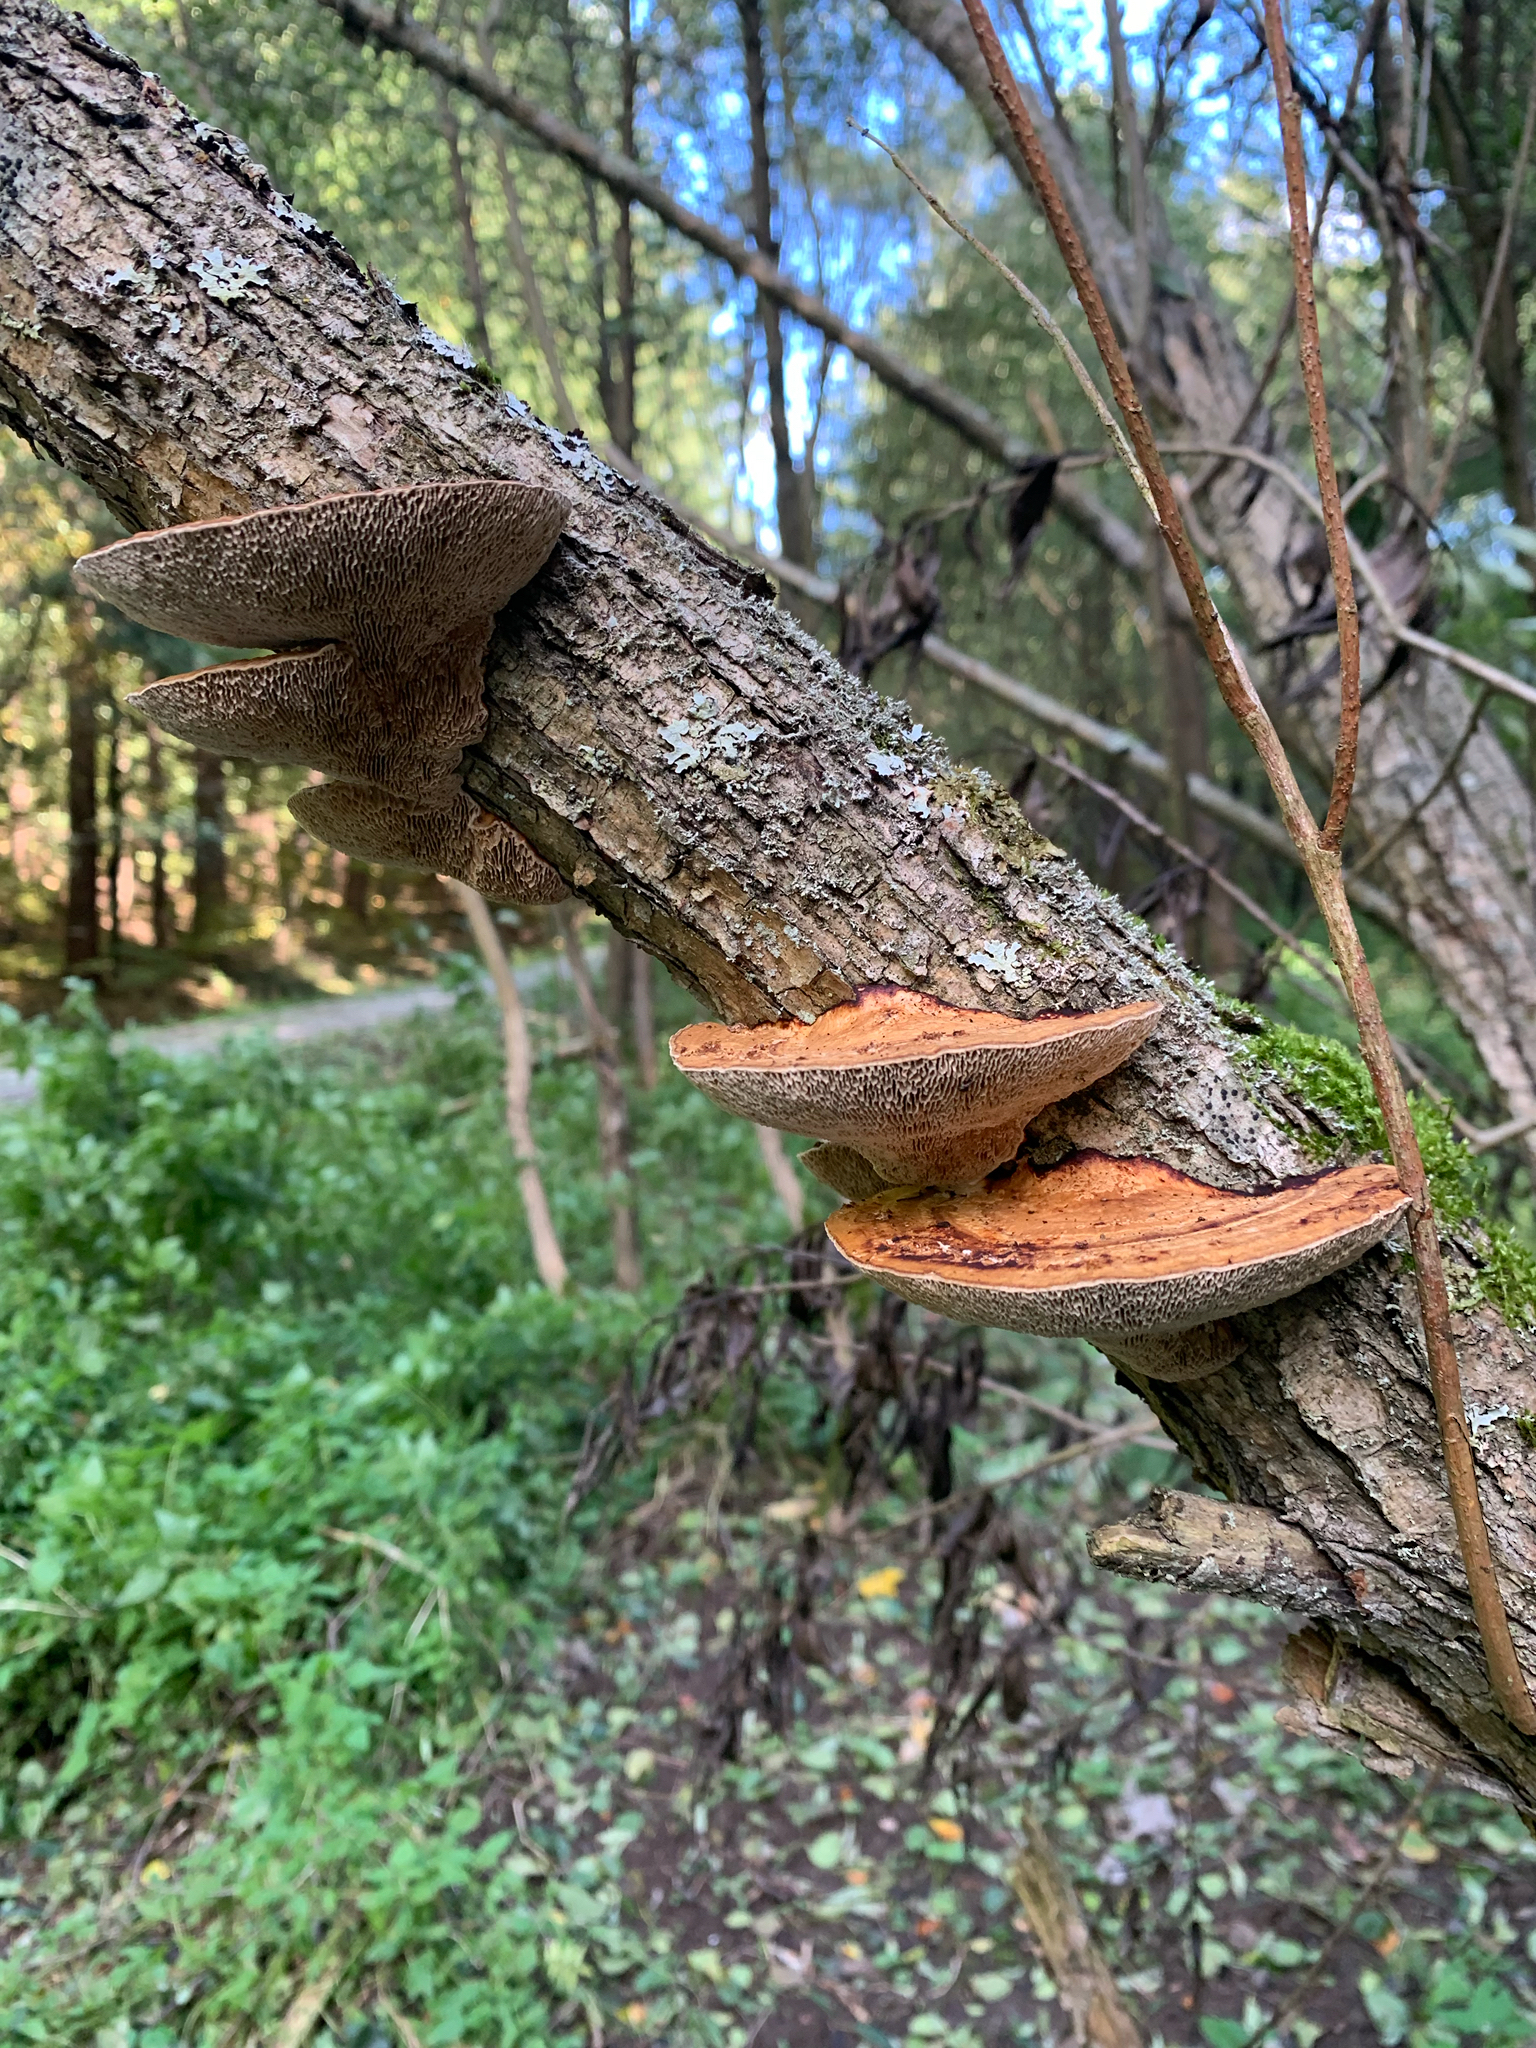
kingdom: Fungi
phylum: Basidiomycota
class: Agaricomycetes
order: Polyporales
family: Polyporaceae
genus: Daedaleopsis
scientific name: Daedaleopsis confragosa
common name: Blushing bracket
